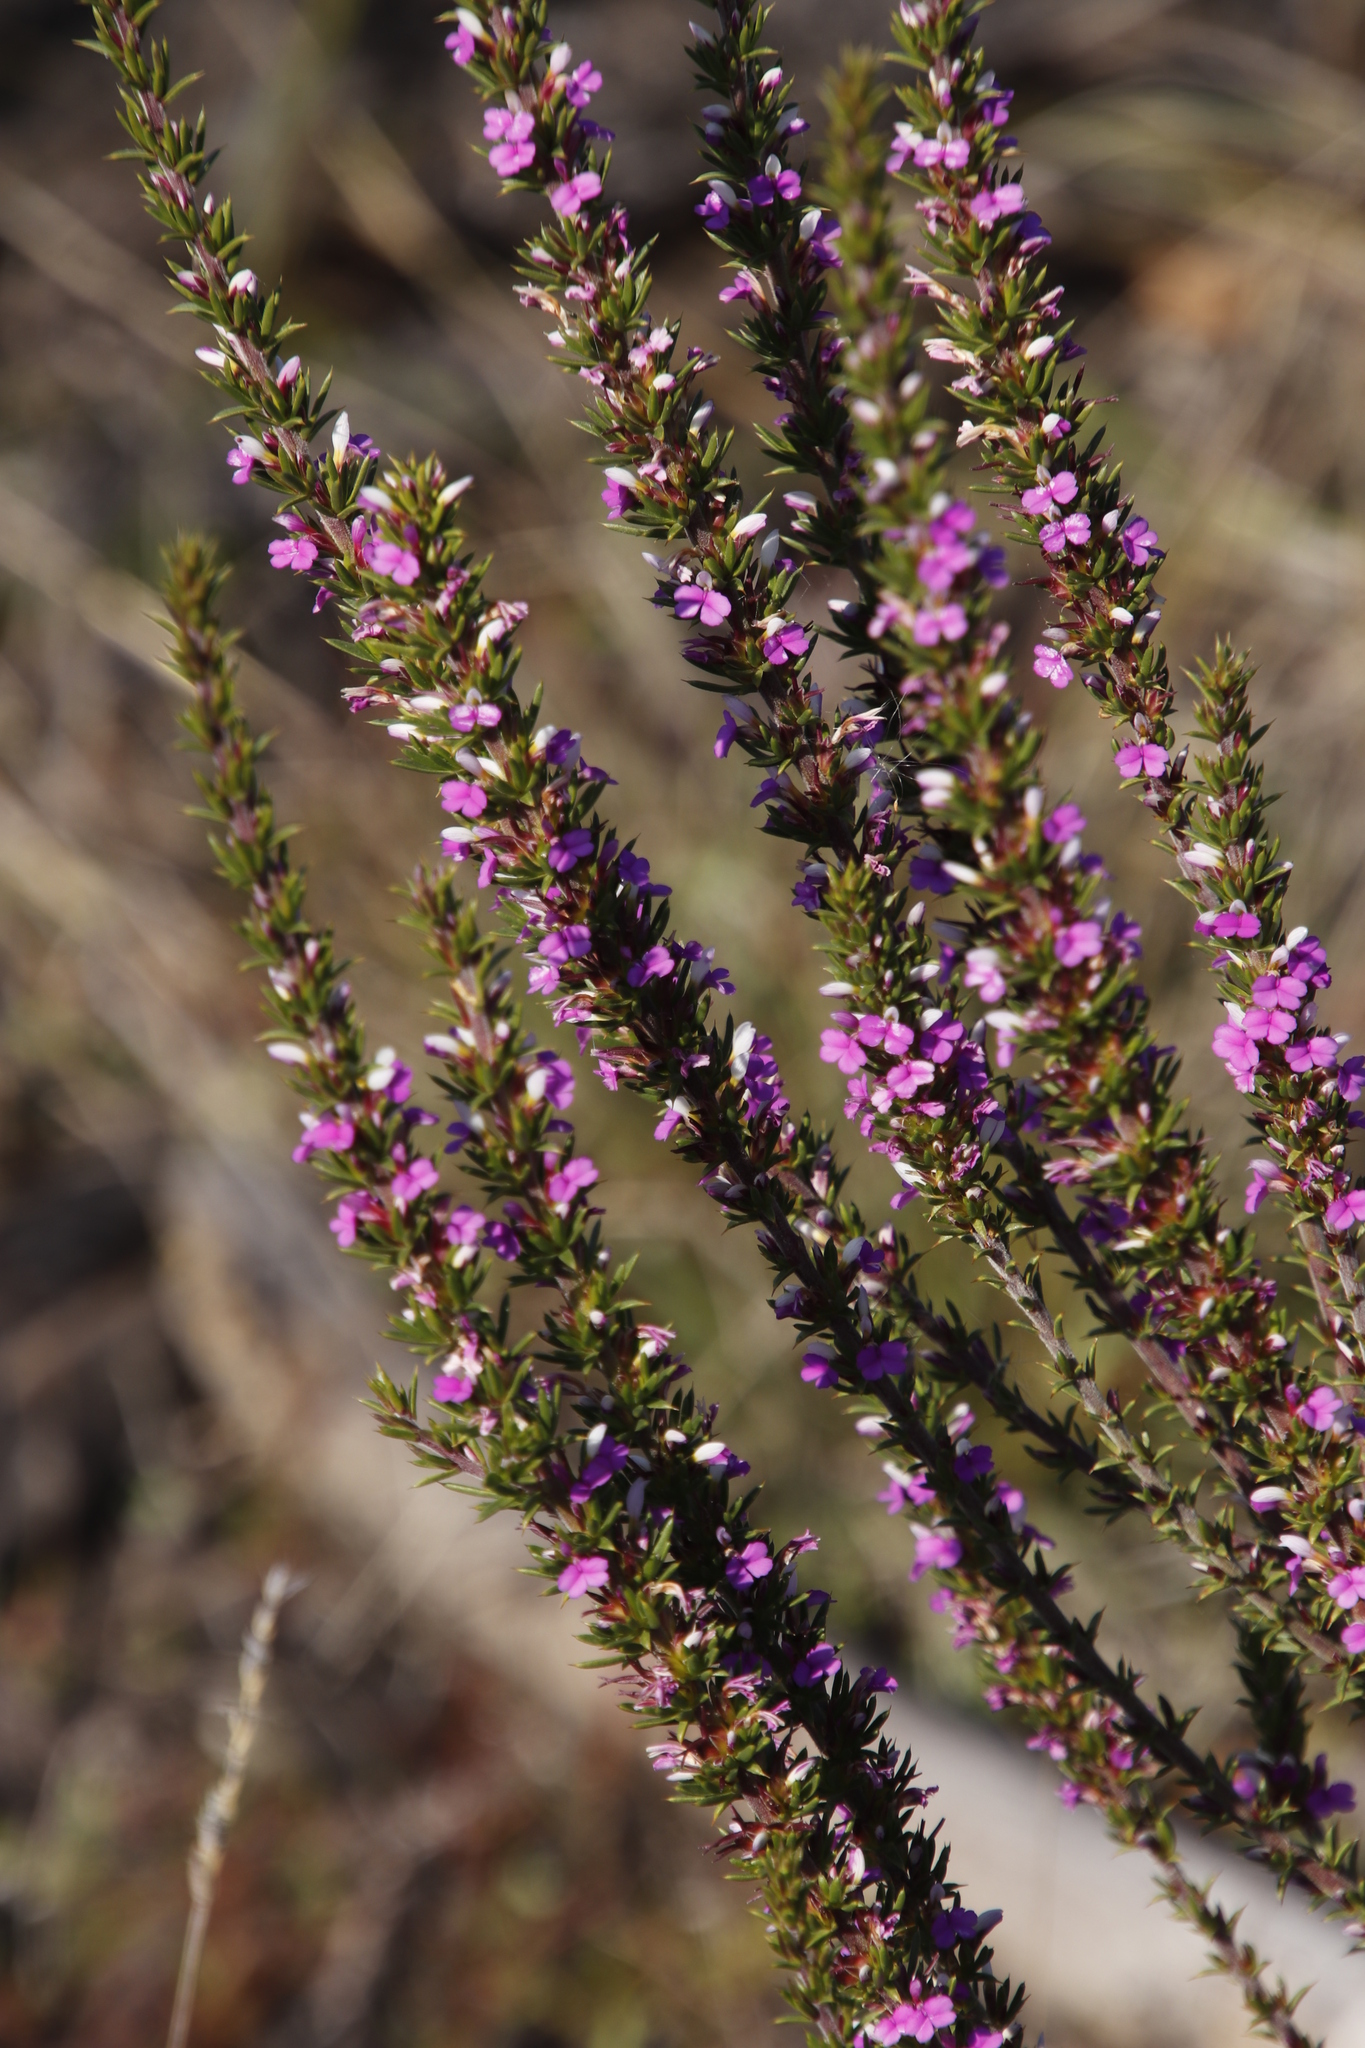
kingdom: Plantae
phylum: Tracheophyta
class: Magnoliopsida
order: Fabales
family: Polygalaceae
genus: Muraltia
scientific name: Muraltia heisteria
